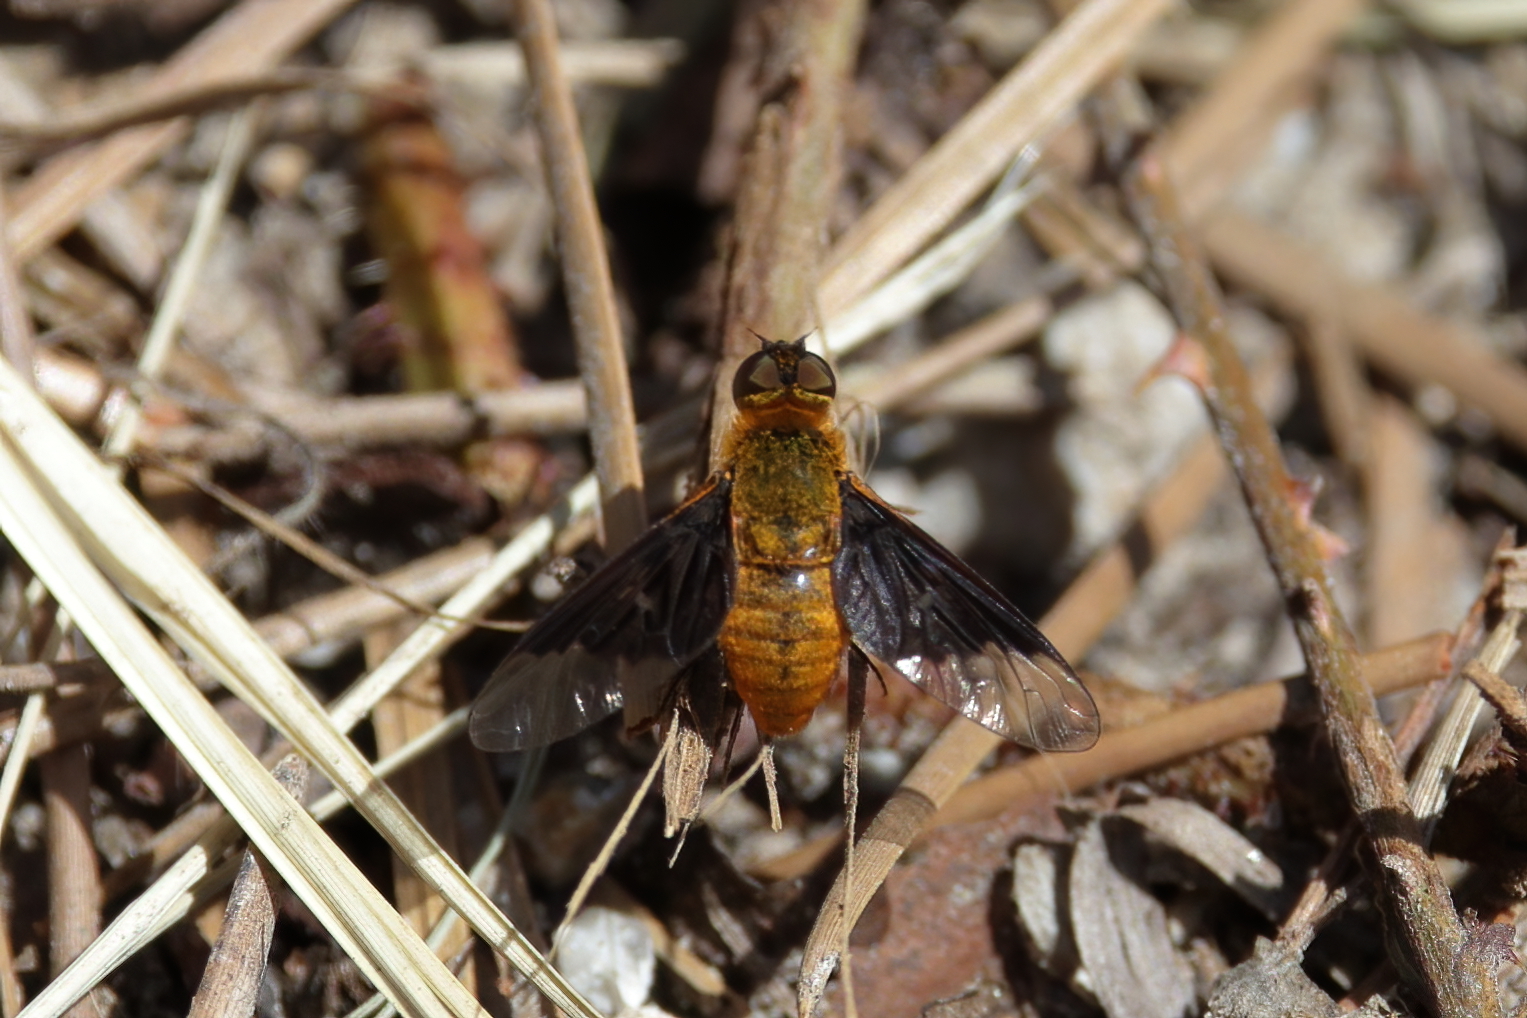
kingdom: Animalia
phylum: Arthropoda
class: Insecta
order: Diptera
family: Bombyliidae
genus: Chrysanthrax
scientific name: Chrysanthrax cypris
